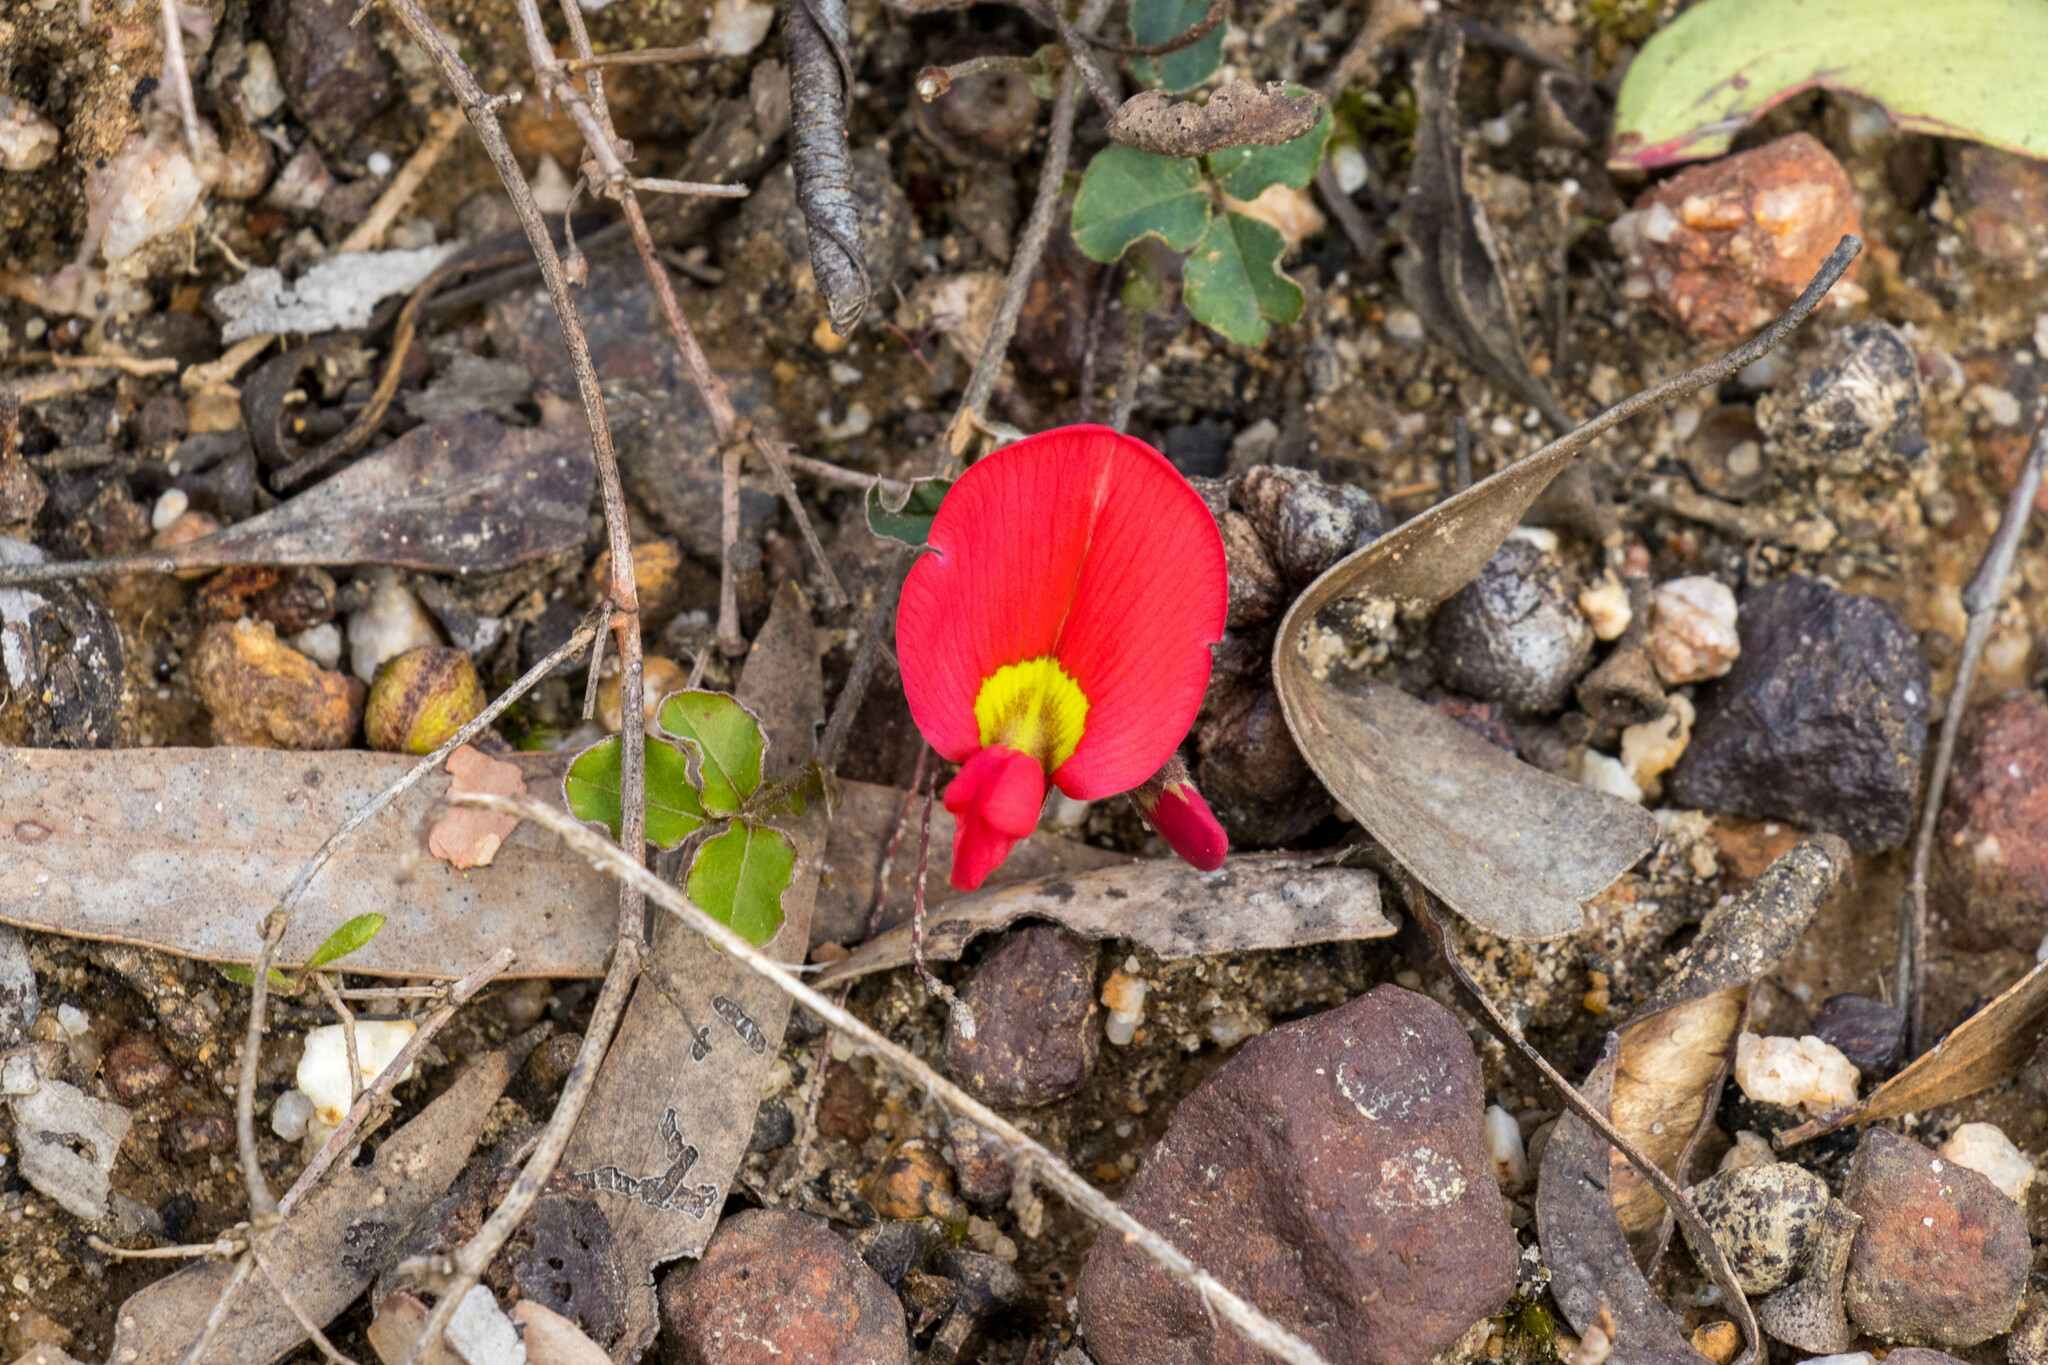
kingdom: Plantae
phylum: Tracheophyta
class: Magnoliopsida
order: Fabales
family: Fabaceae
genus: Kennedia
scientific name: Kennedia prostrata
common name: Running-postman
